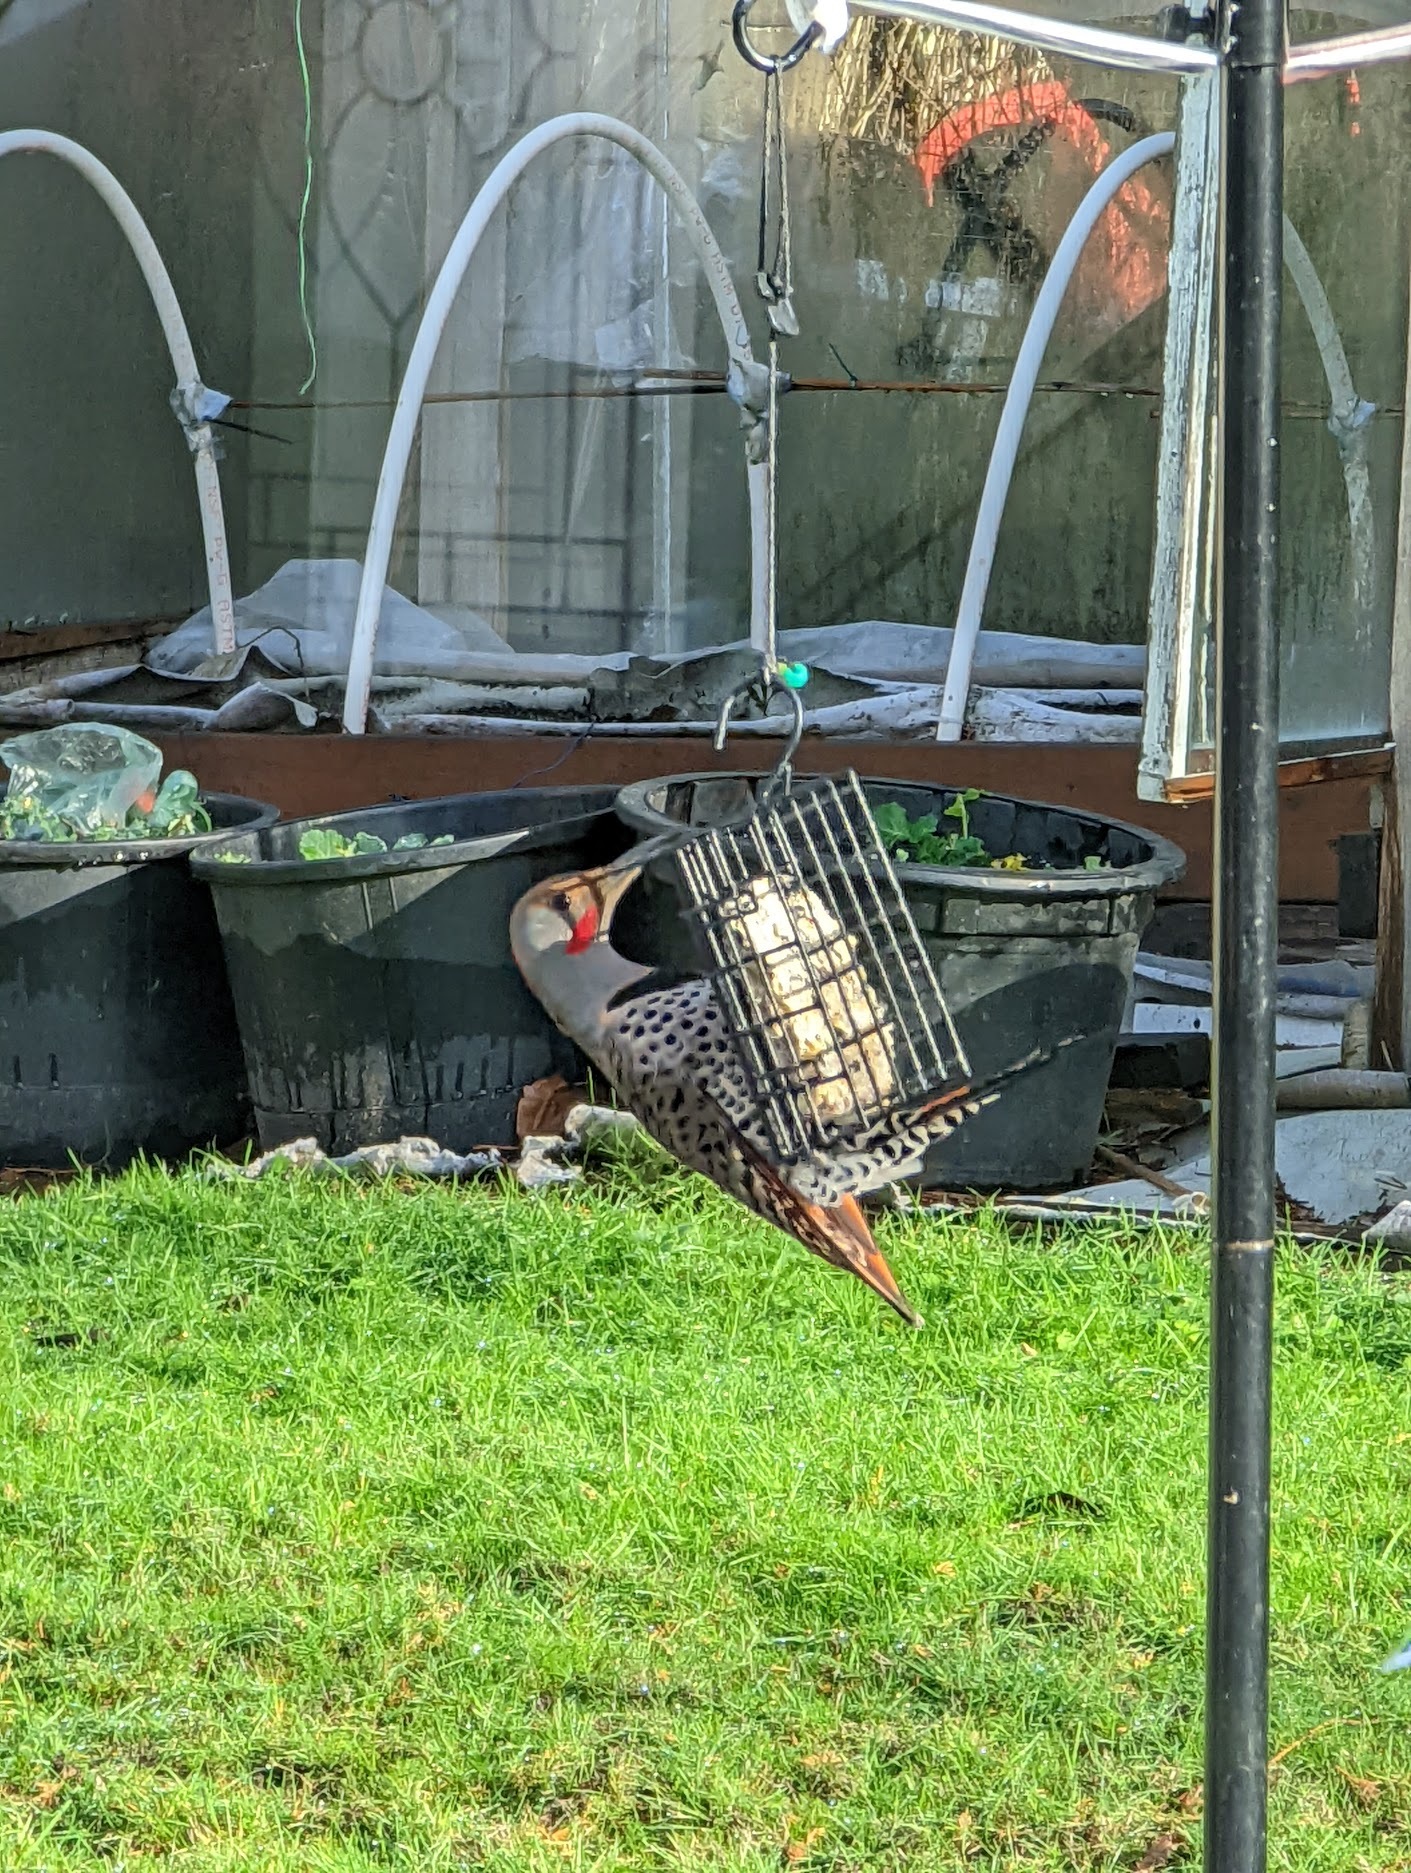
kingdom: Animalia
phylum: Chordata
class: Aves
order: Piciformes
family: Picidae
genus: Colaptes
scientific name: Colaptes auratus
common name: Northern flicker
